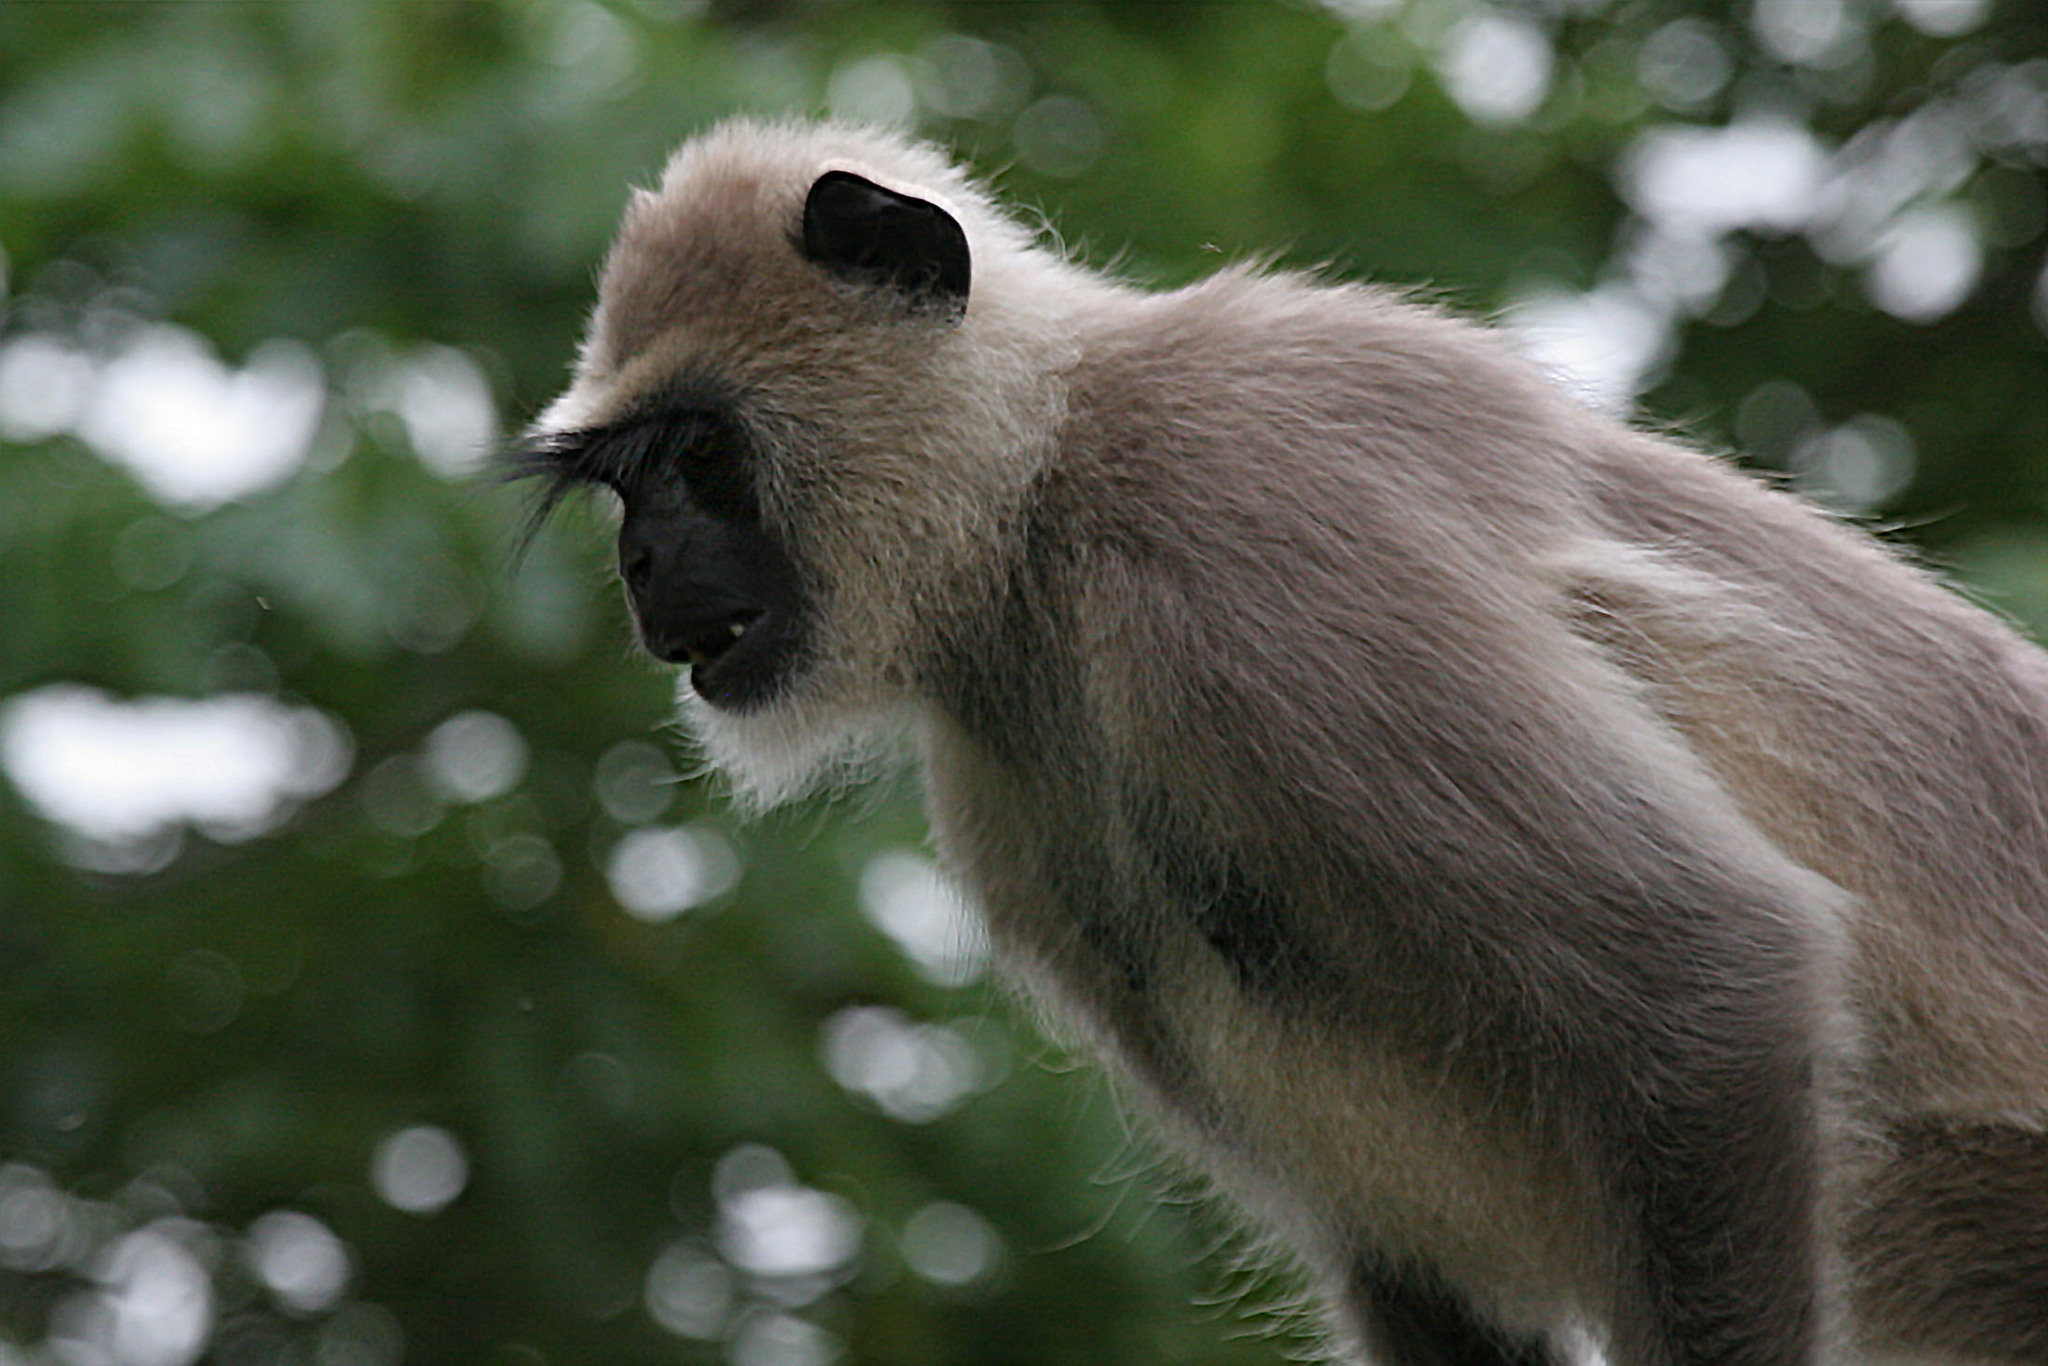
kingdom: Animalia
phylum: Chordata
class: Mammalia
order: Primates
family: Cercopithecidae
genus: Semnopithecus
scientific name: Semnopithecus hypoleucos
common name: Black-footed gray langur
